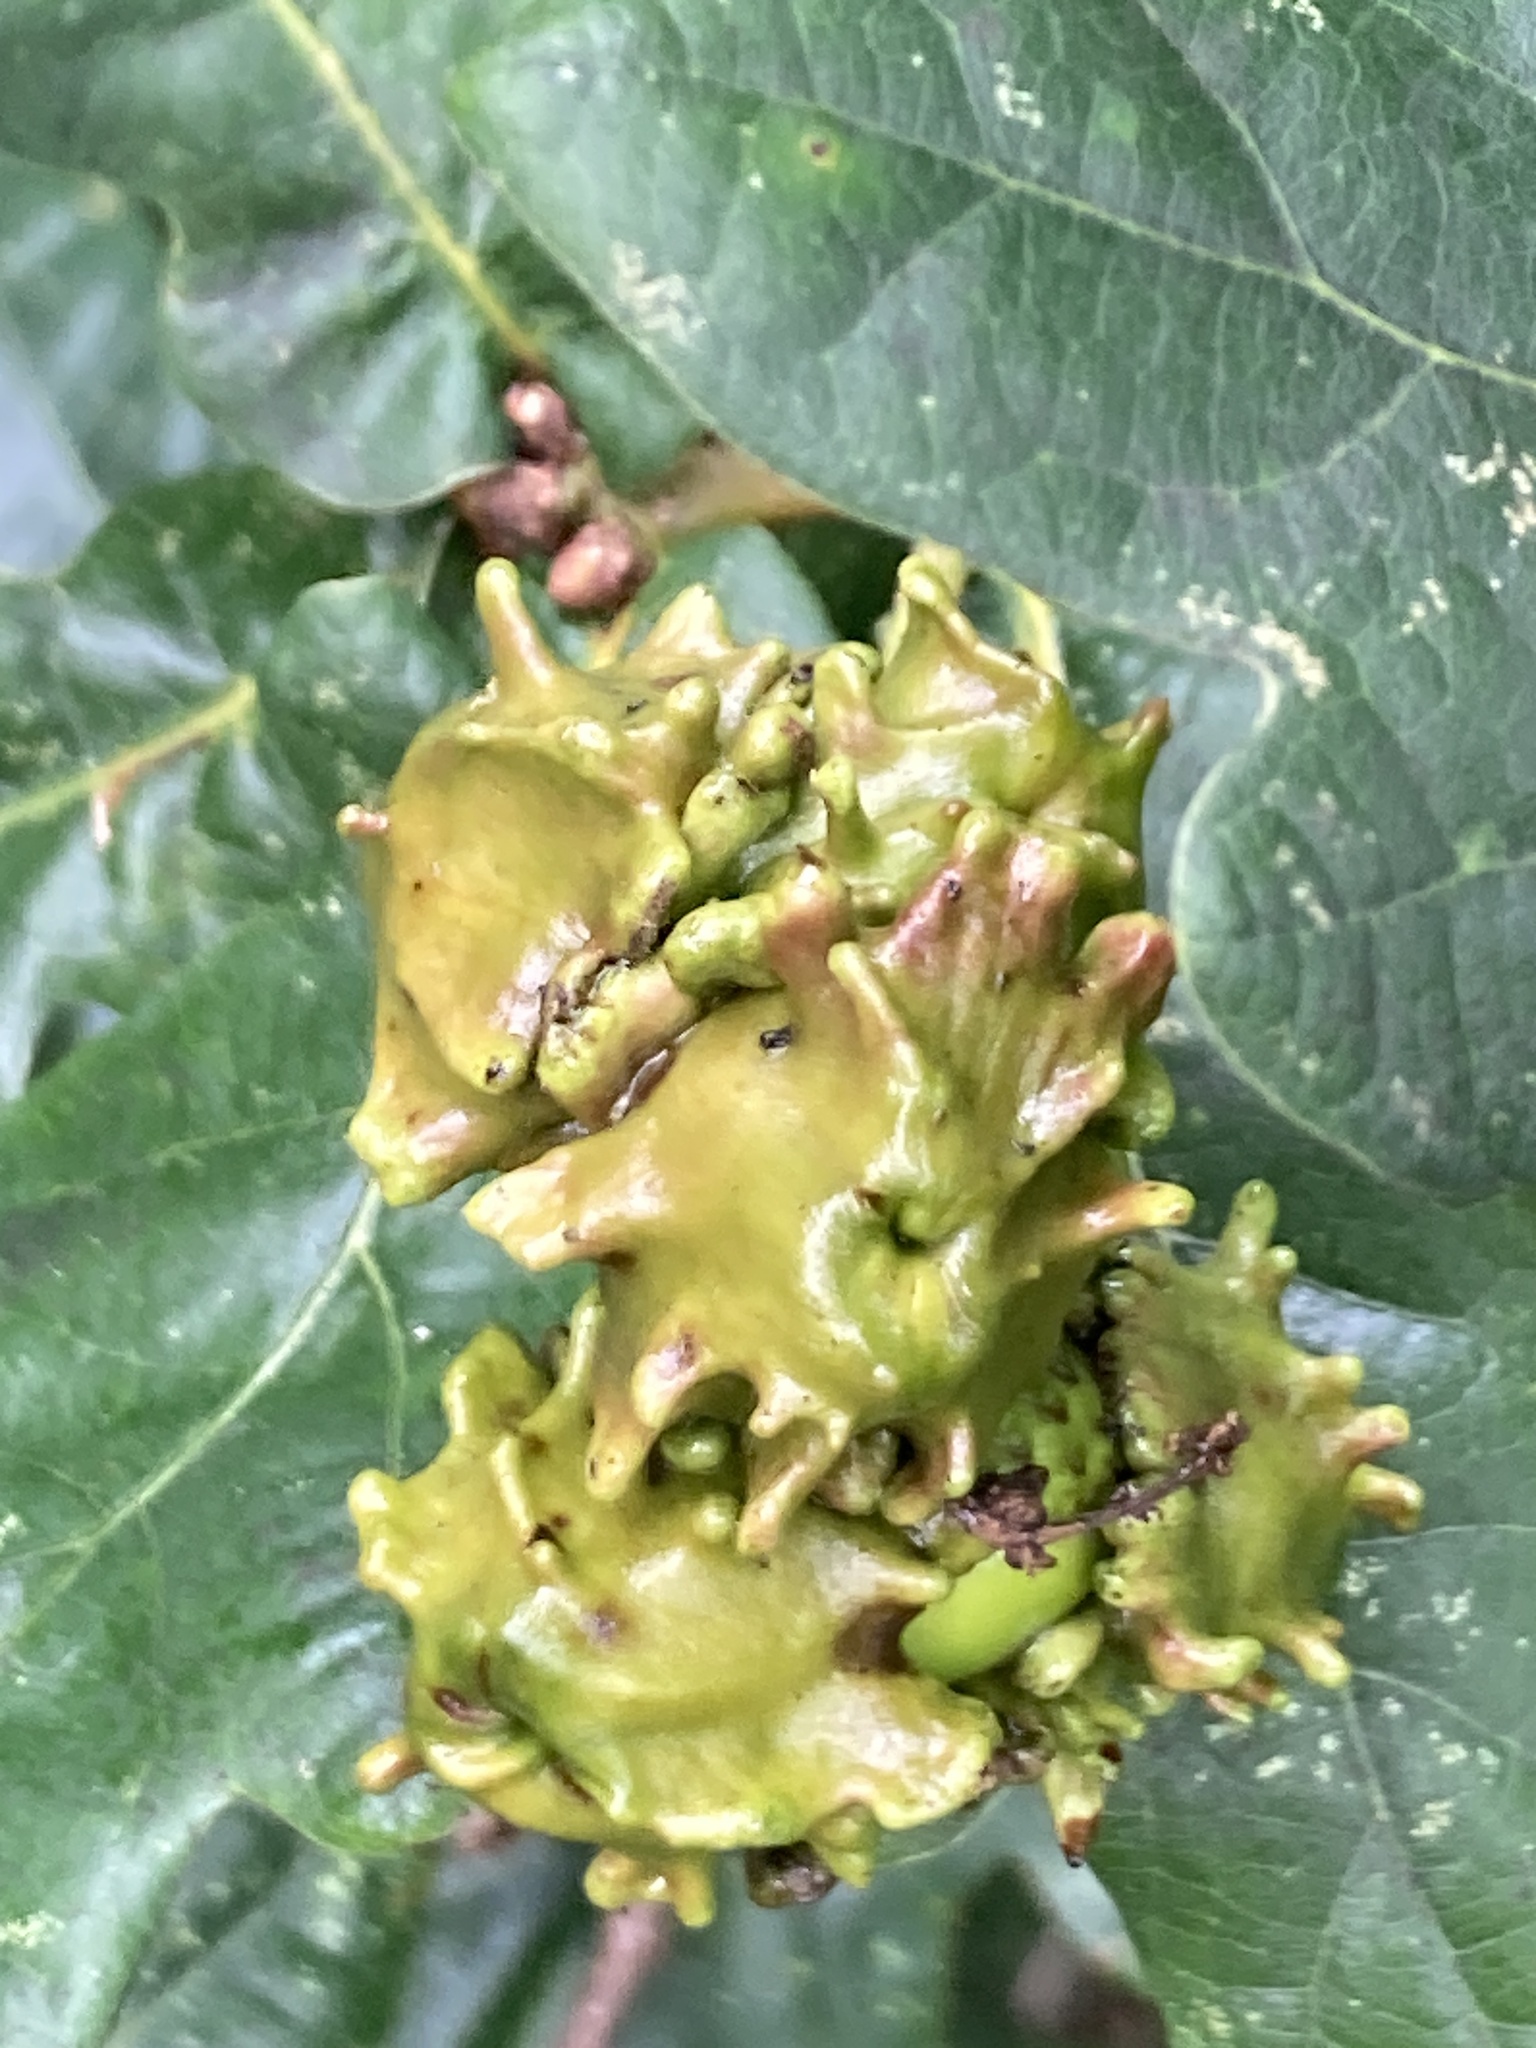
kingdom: Animalia
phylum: Arthropoda
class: Insecta
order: Hymenoptera
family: Cynipidae
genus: Andricus
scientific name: Andricus quercuscalicis
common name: Knopper gall
